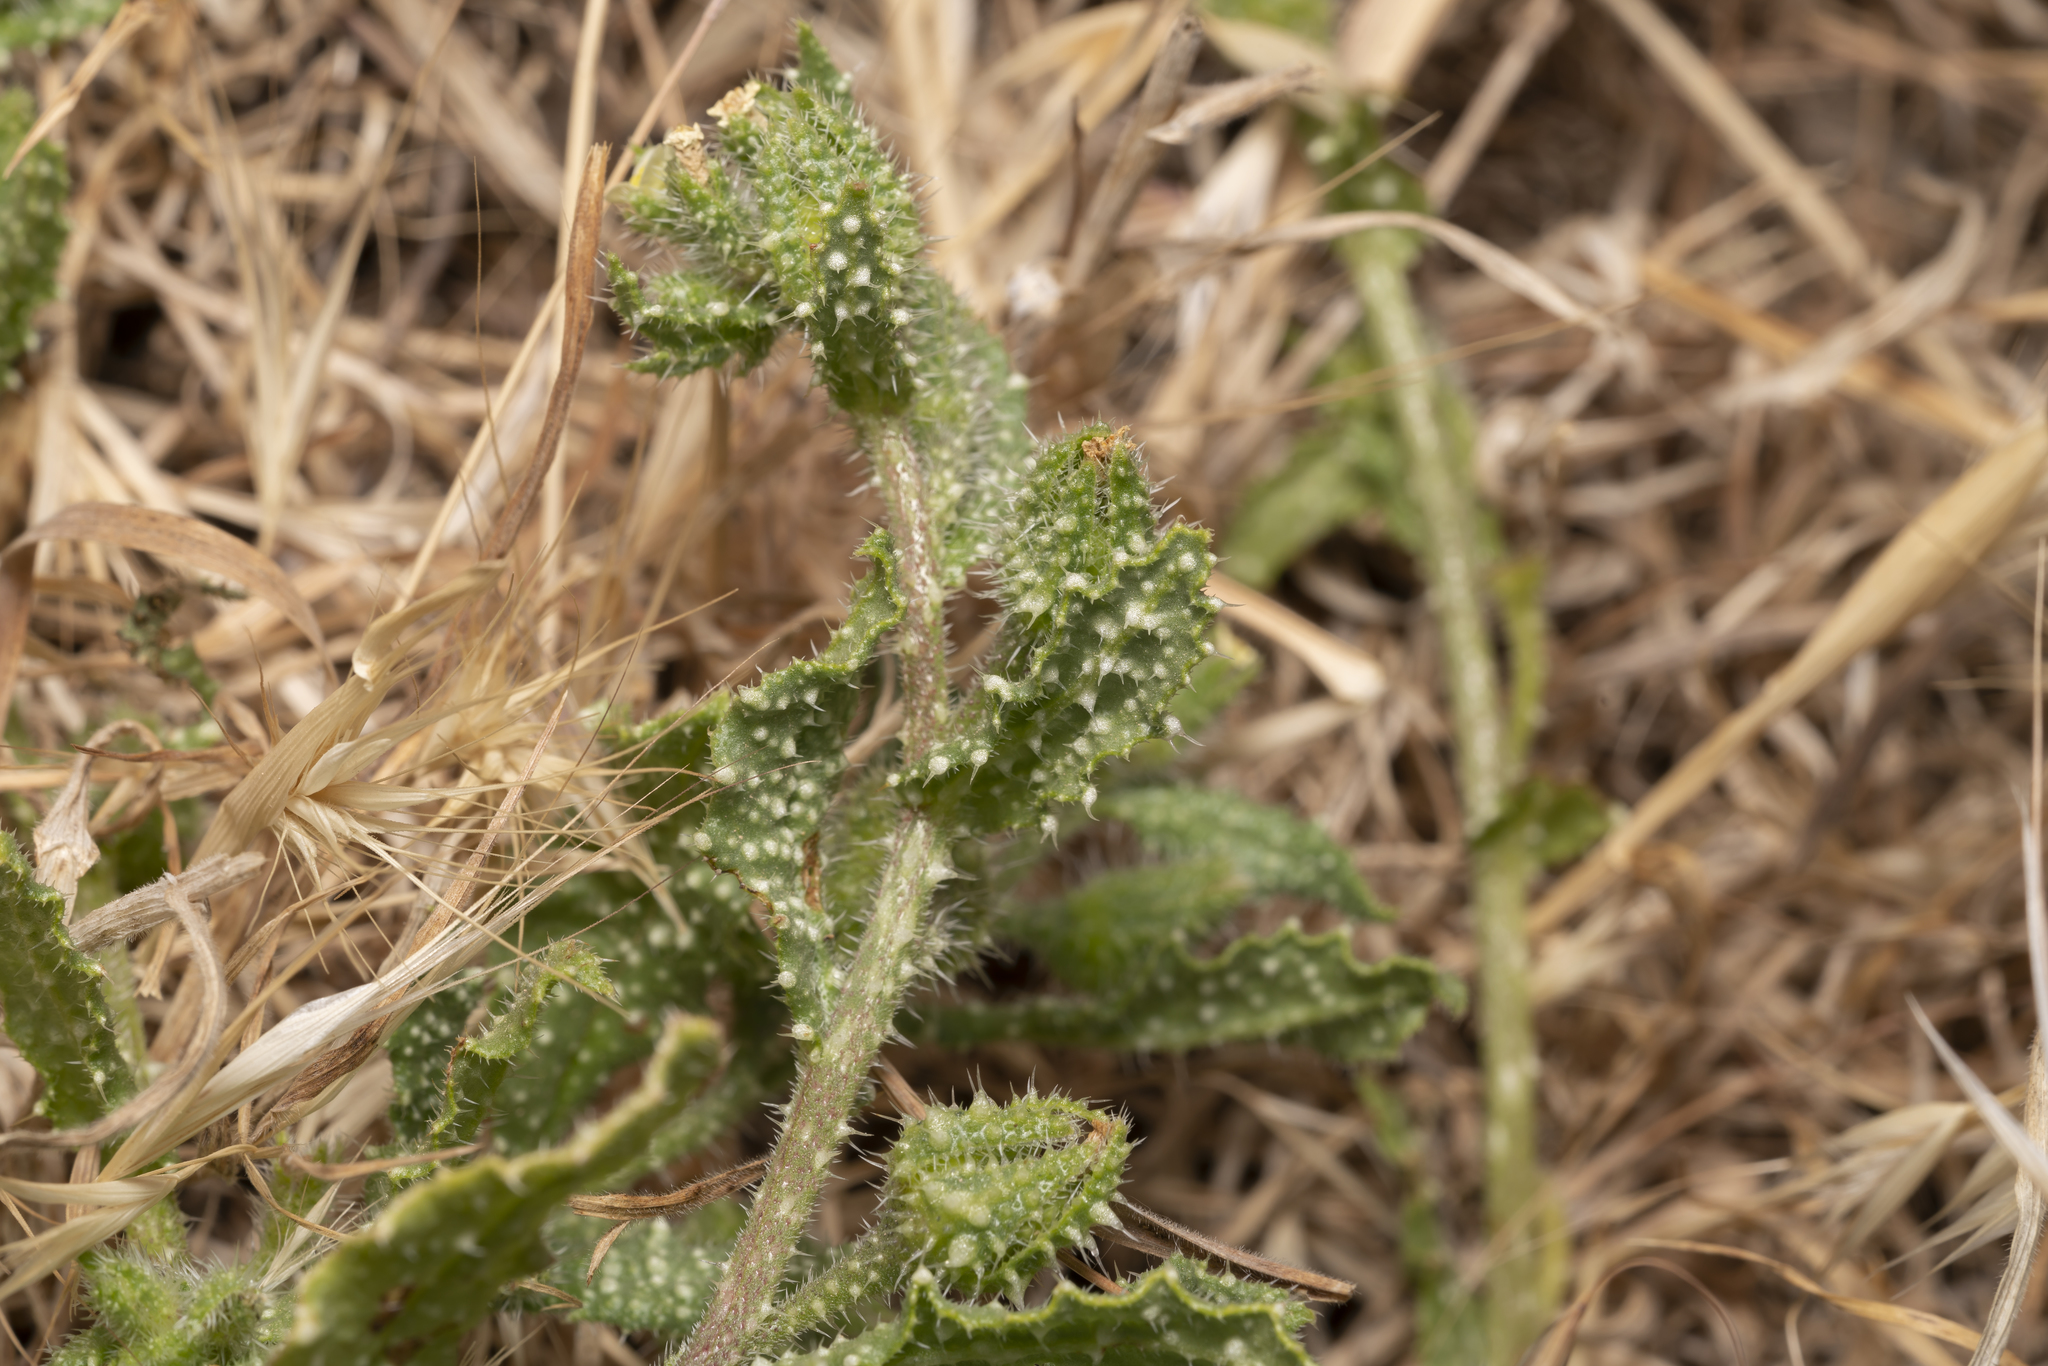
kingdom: Plantae
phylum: Tracheophyta
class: Magnoliopsida
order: Boraginales
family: Boraginaceae
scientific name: Boraginaceae
